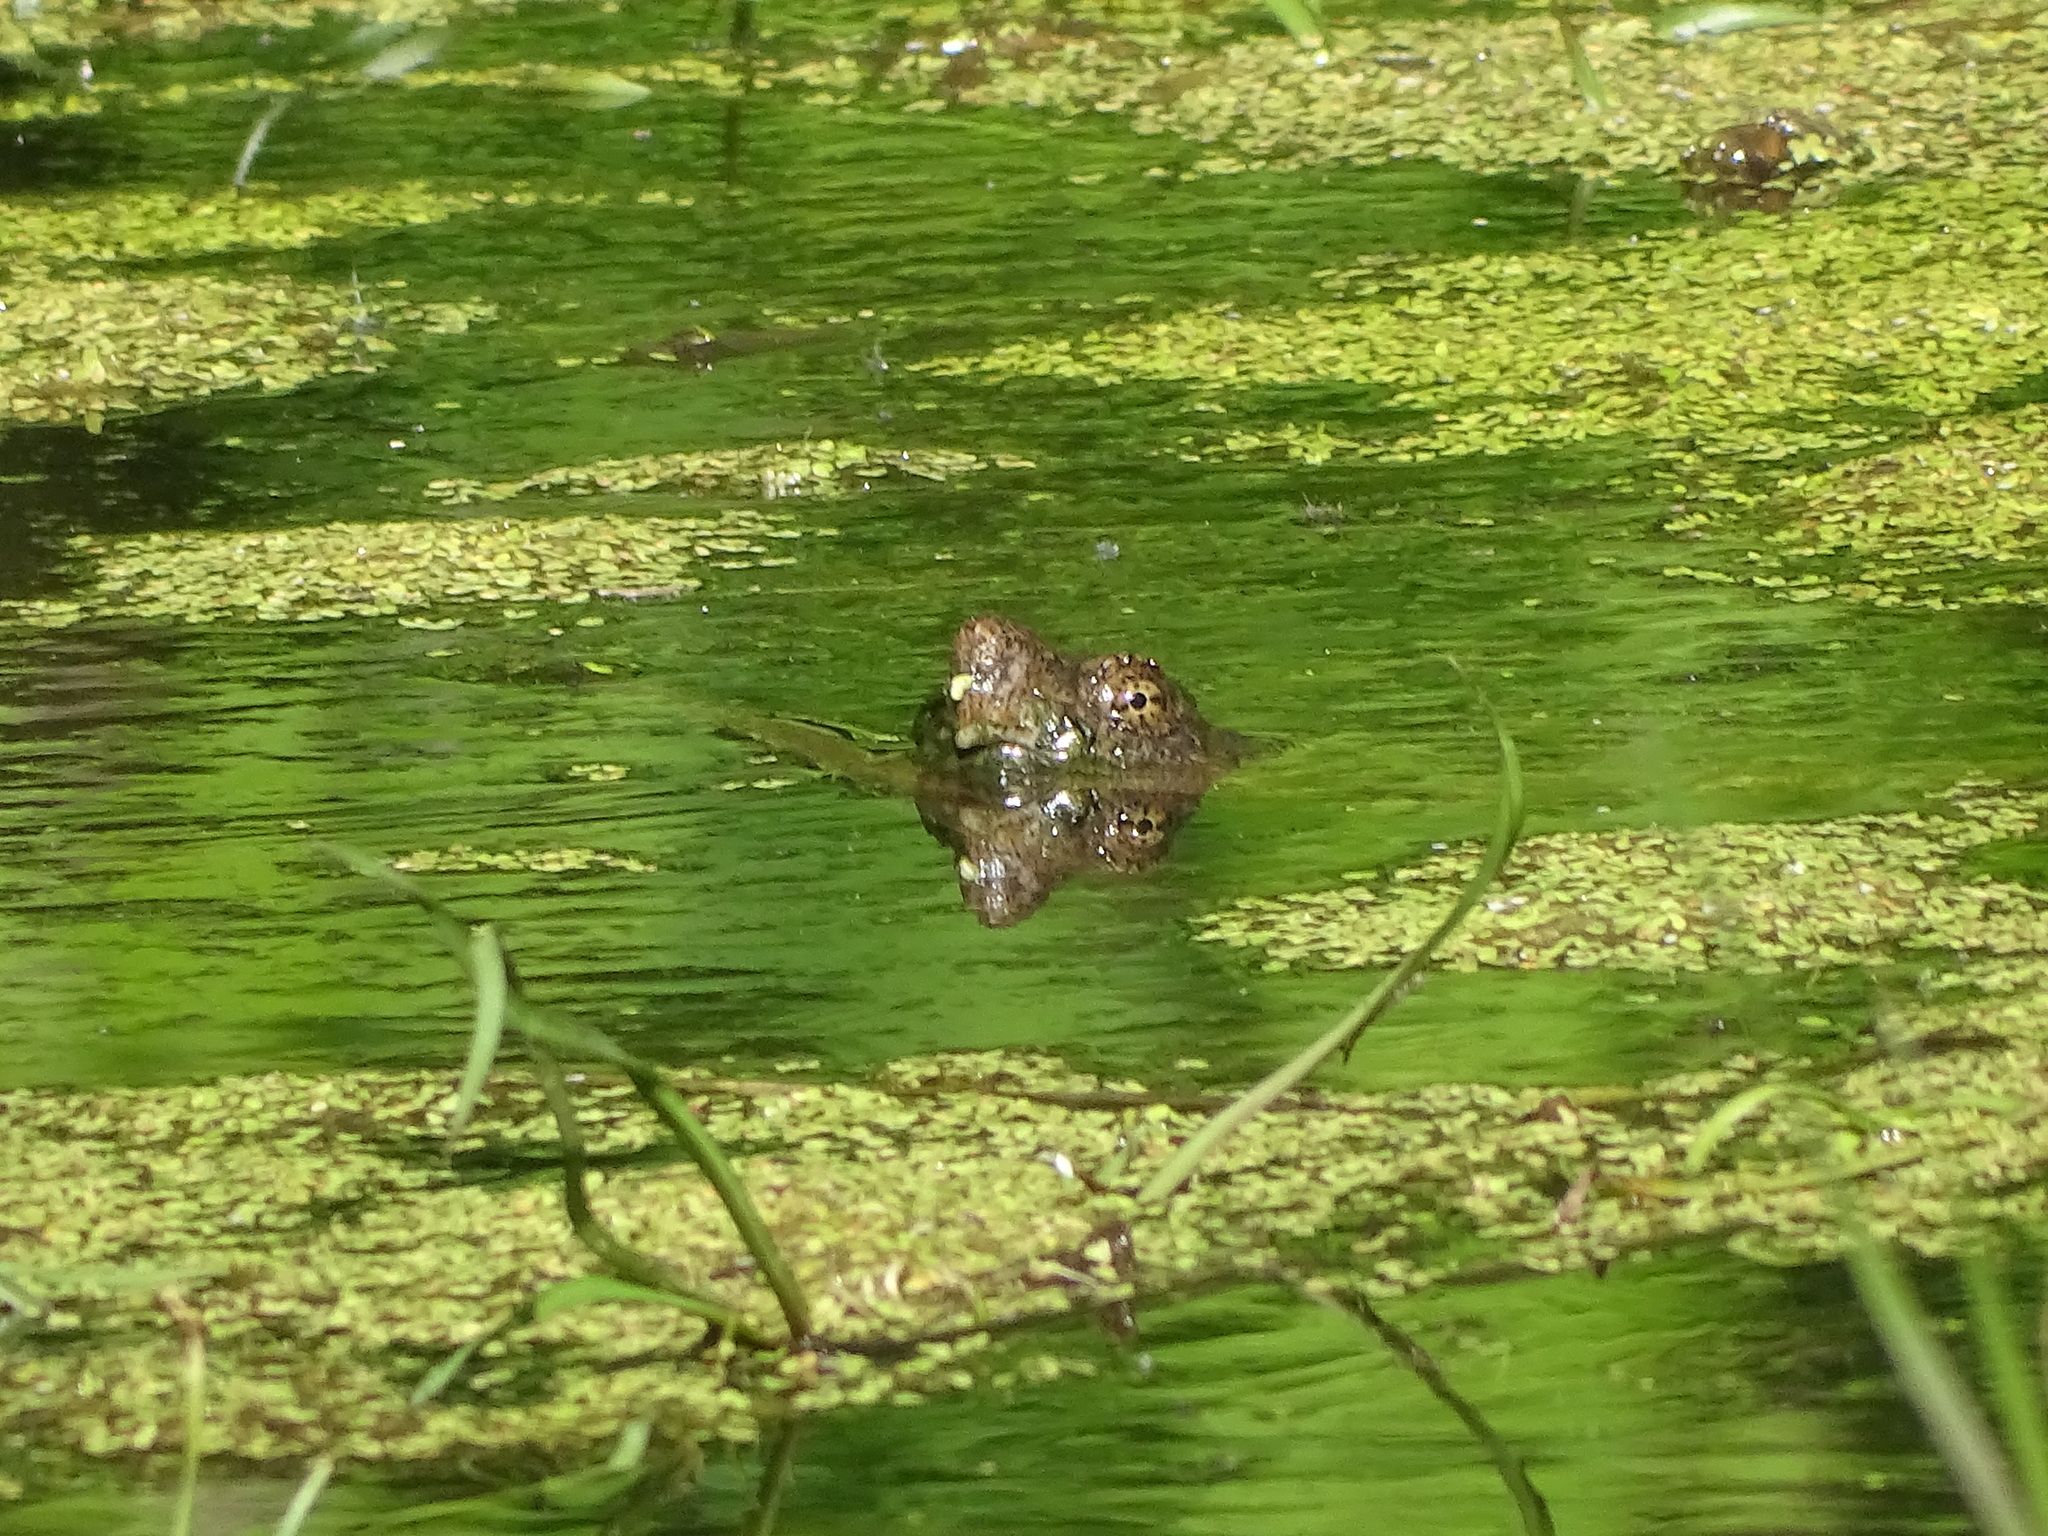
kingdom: Animalia
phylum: Chordata
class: Testudines
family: Chelydridae
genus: Chelydra
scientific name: Chelydra serpentina
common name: Common snapping turtle
